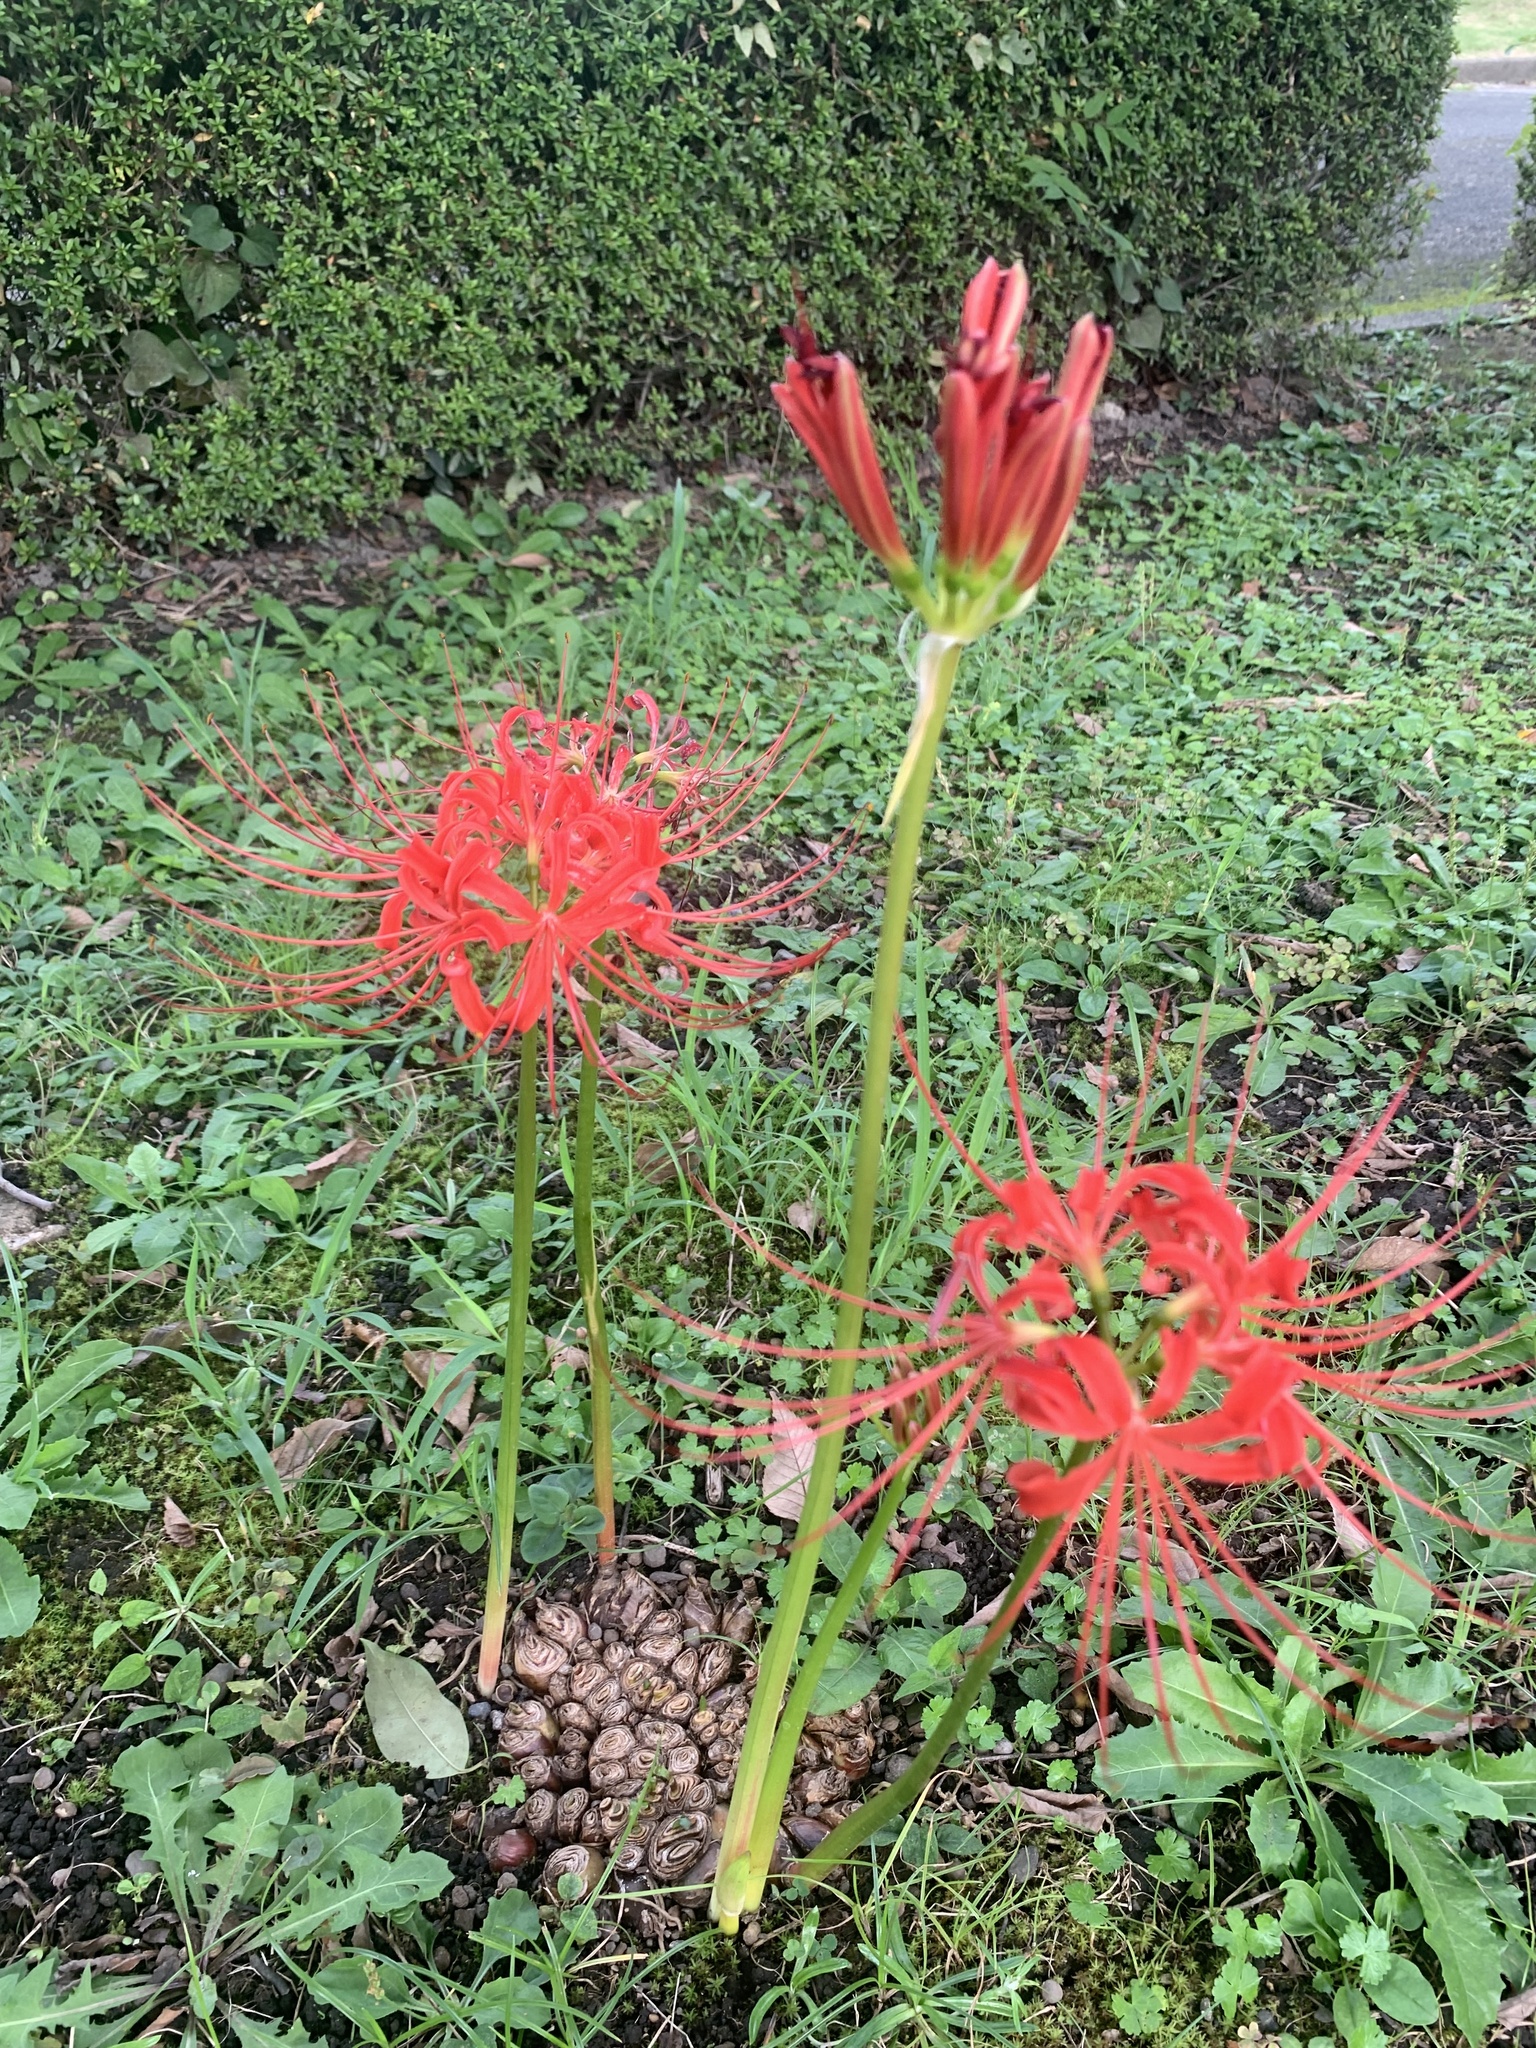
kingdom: Plantae
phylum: Tracheophyta
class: Liliopsida
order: Asparagales
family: Amaryllidaceae
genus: Lycoris
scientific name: Lycoris radiata
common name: Red spider lily
